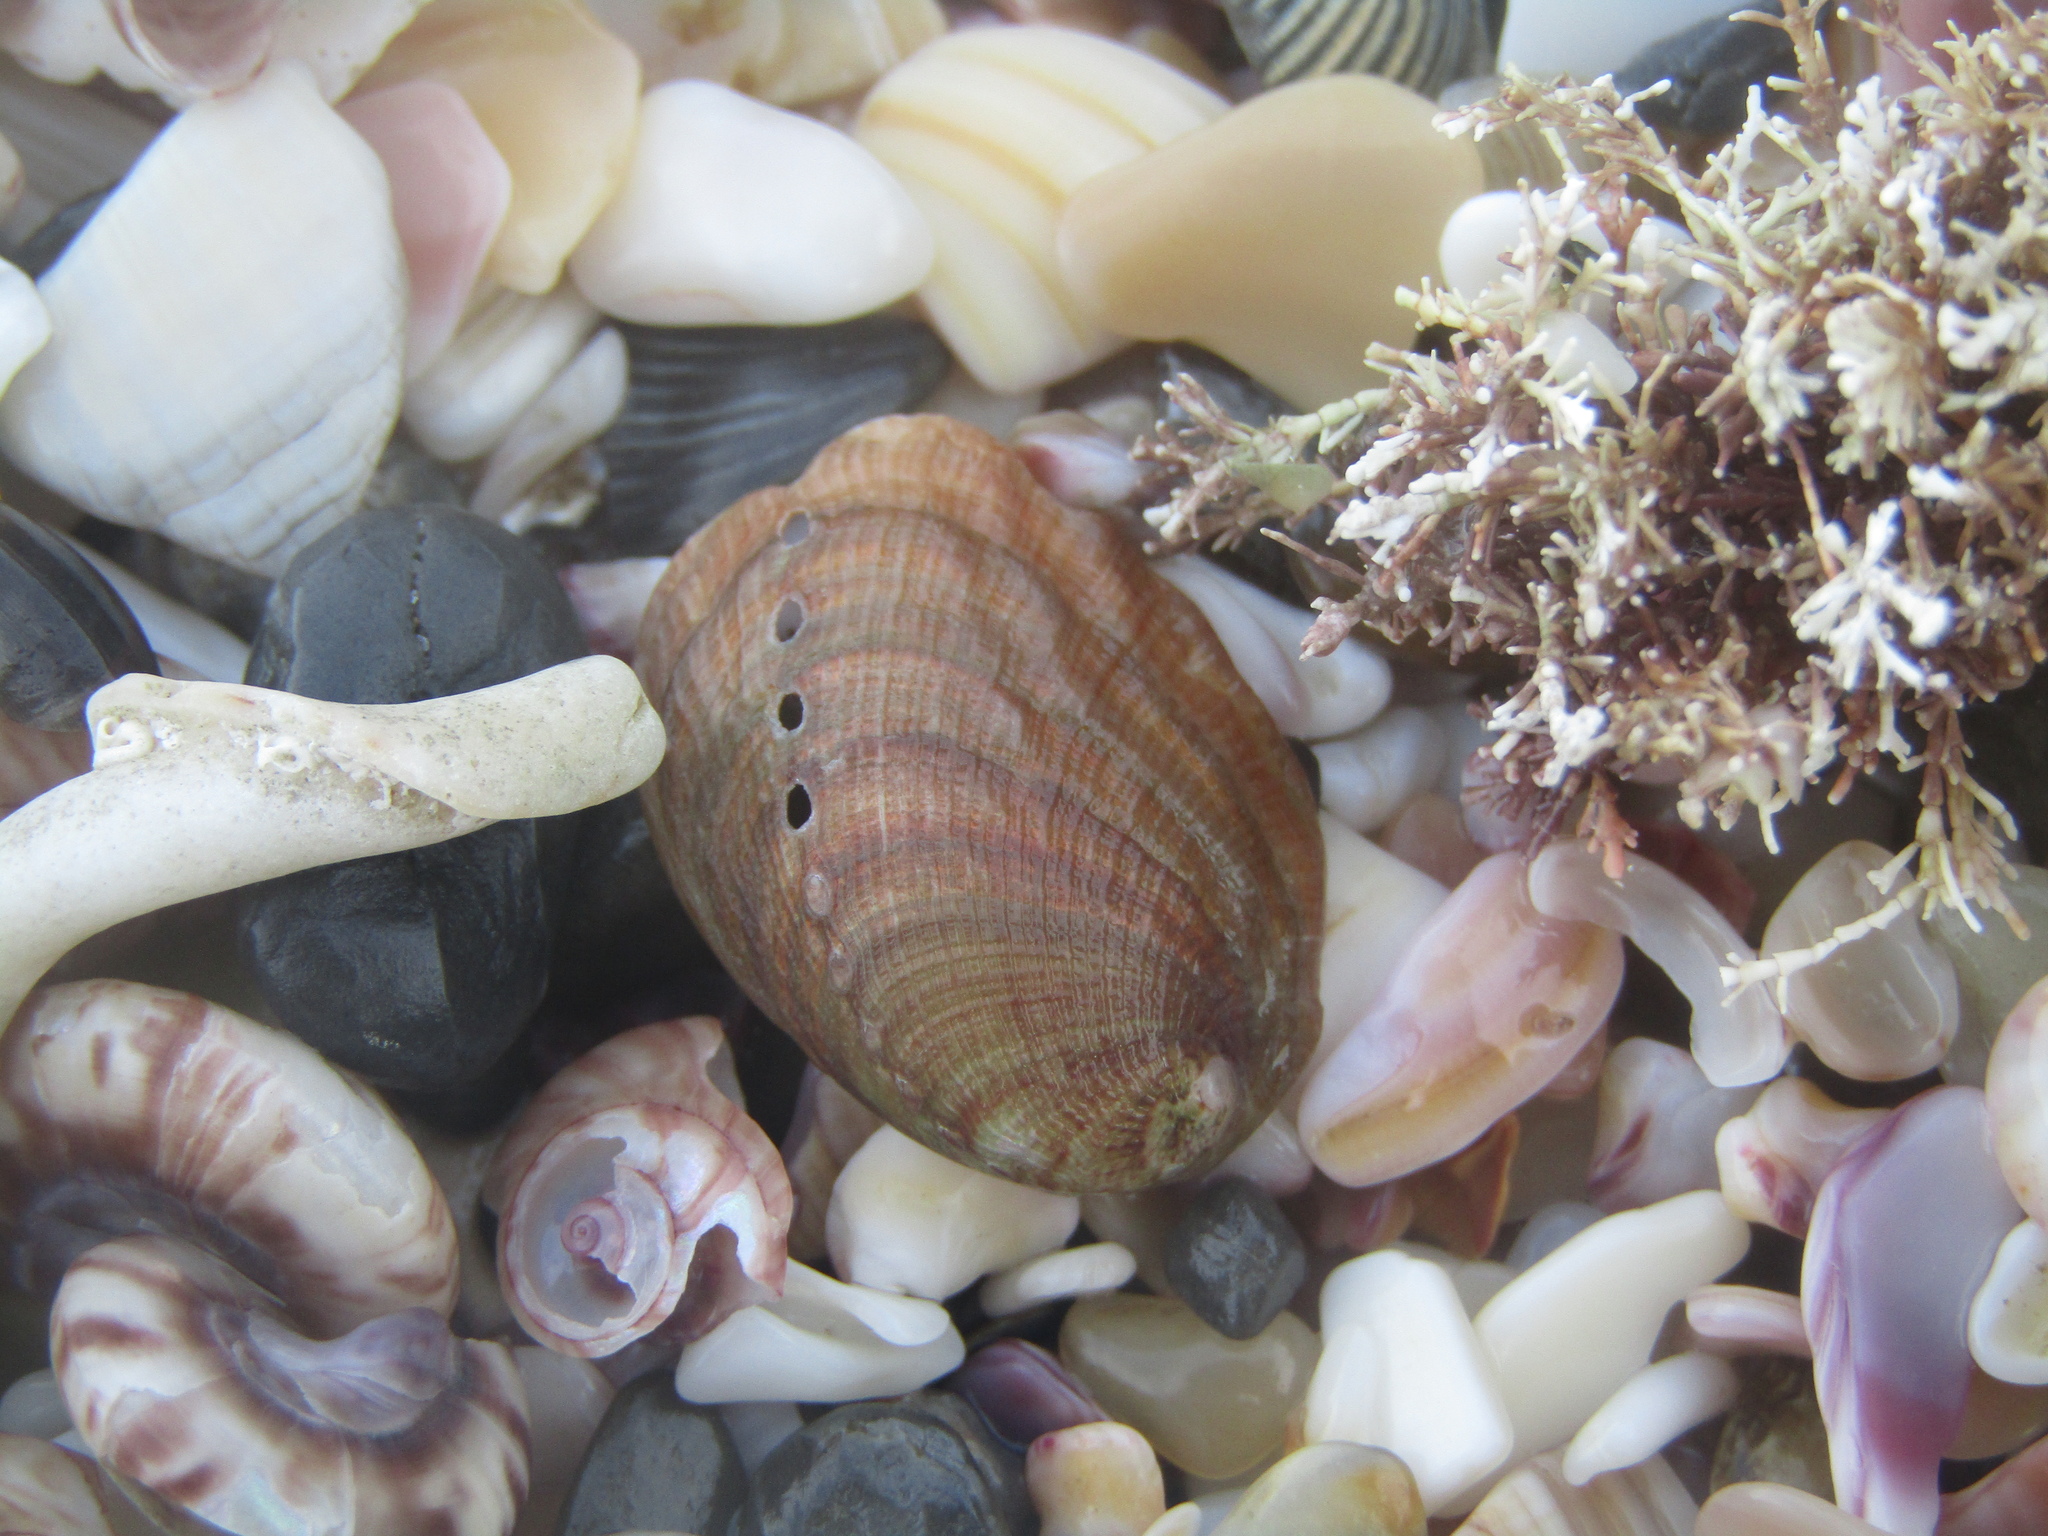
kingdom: Animalia
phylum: Mollusca
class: Gastropoda
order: Lepetellida
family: Haliotidae
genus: Haliotis
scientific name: Haliotis iris
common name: Abalone
